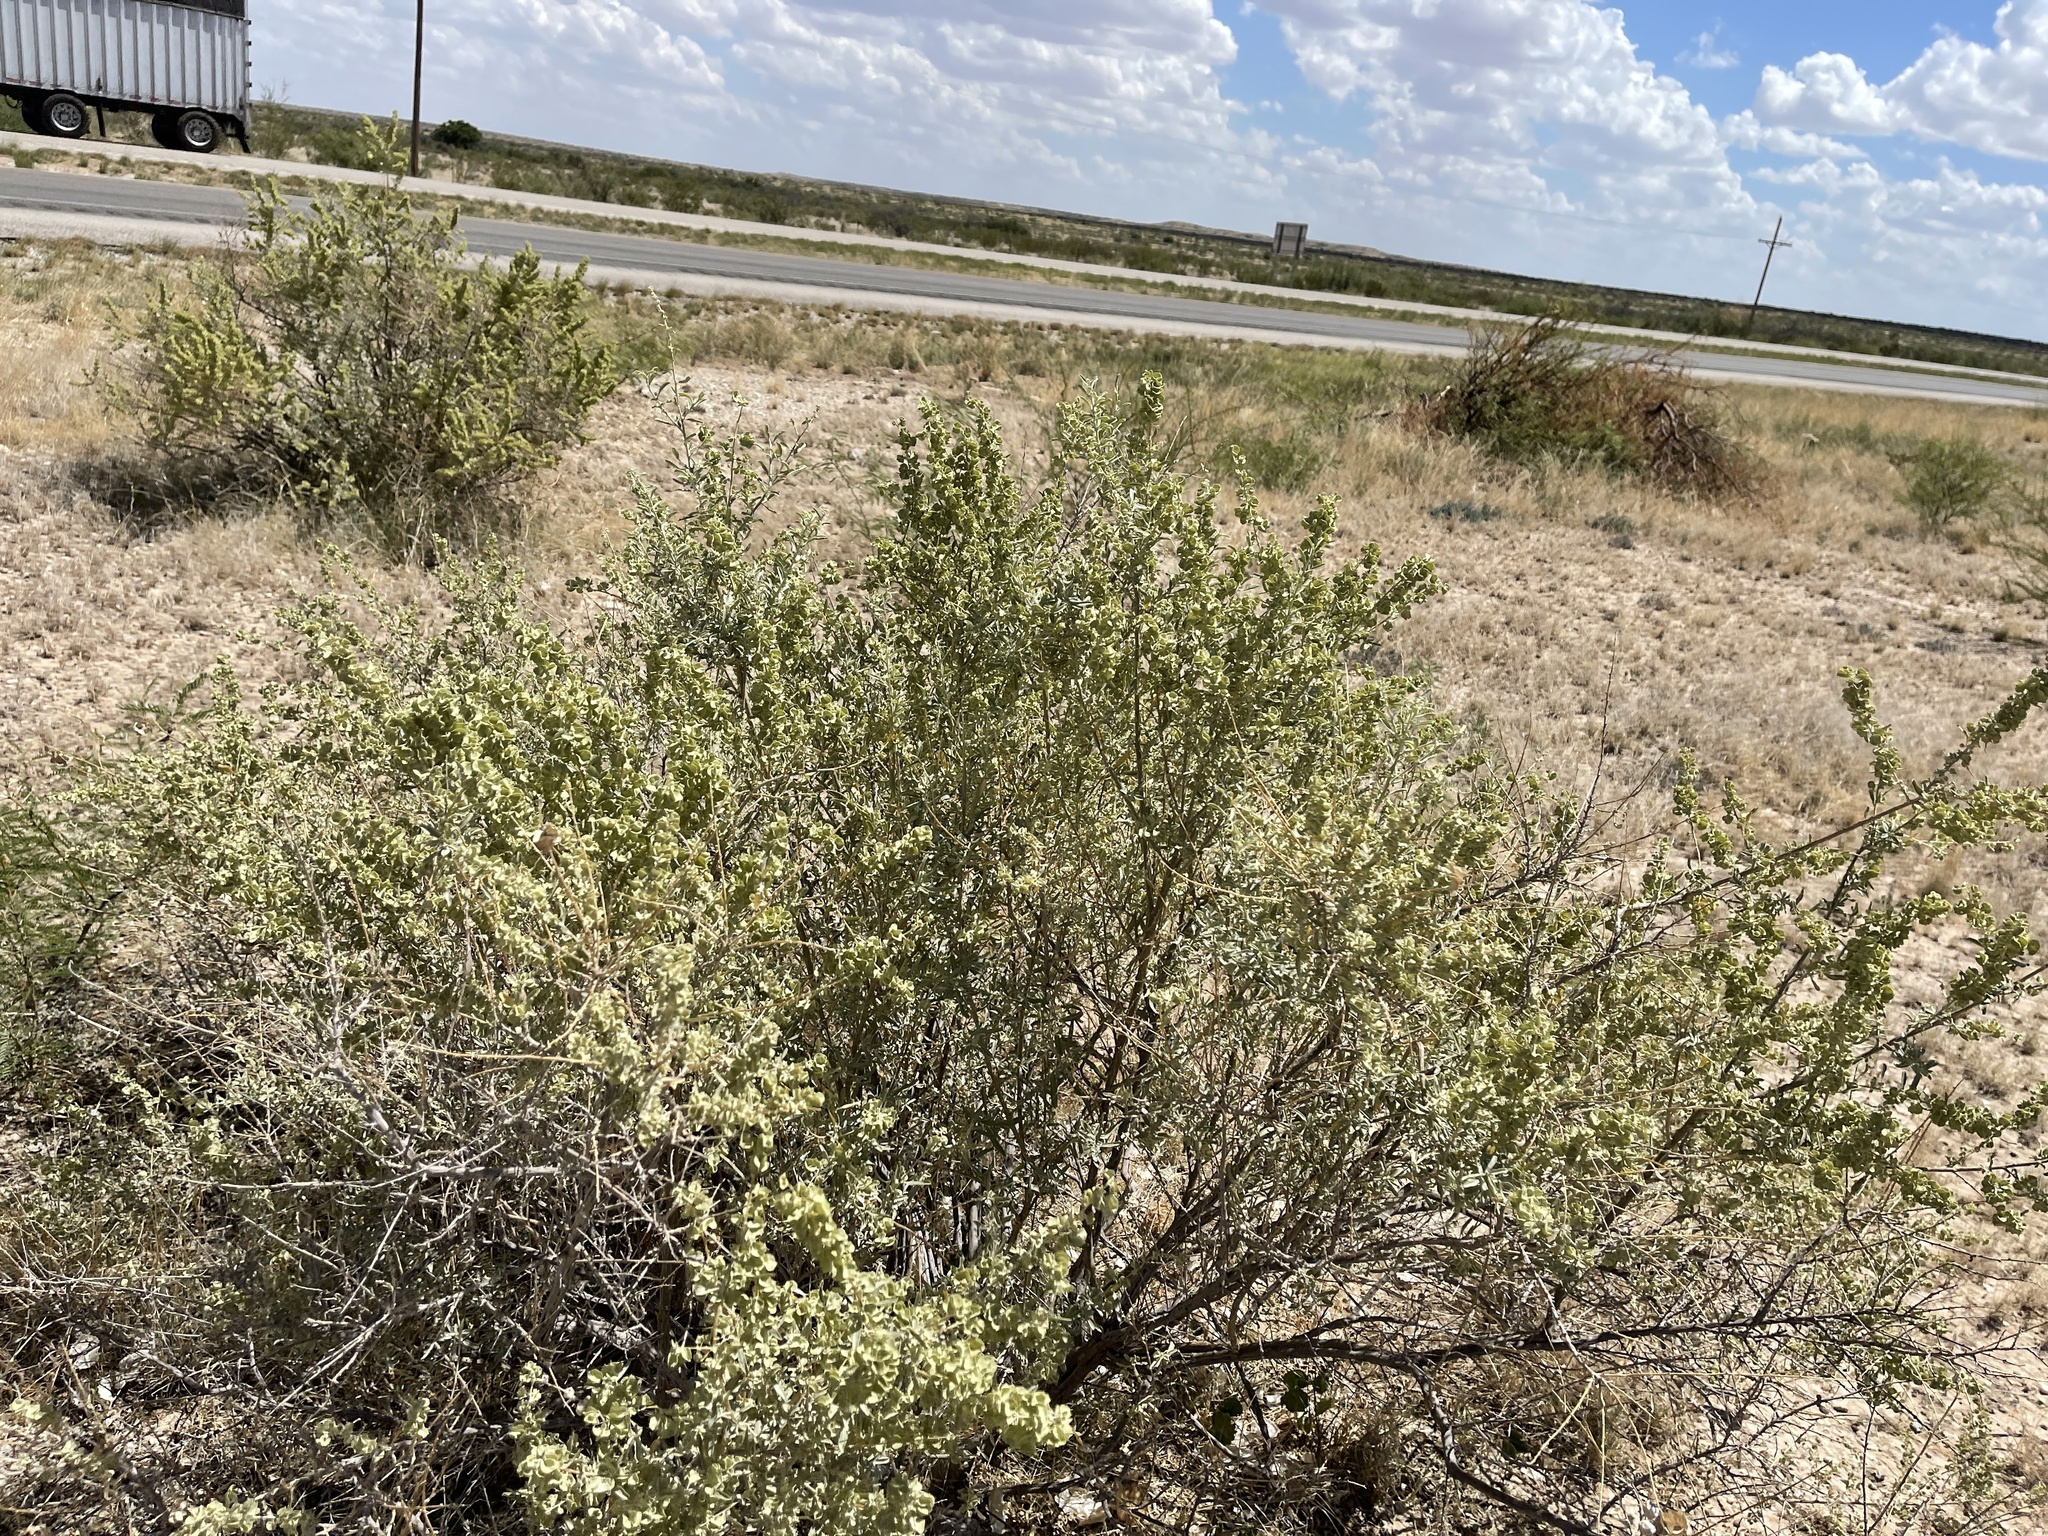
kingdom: Plantae
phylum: Tracheophyta
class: Magnoliopsida
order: Caryophyllales
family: Amaranthaceae
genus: Atriplex
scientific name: Atriplex canescens
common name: Four-wing saltbush
